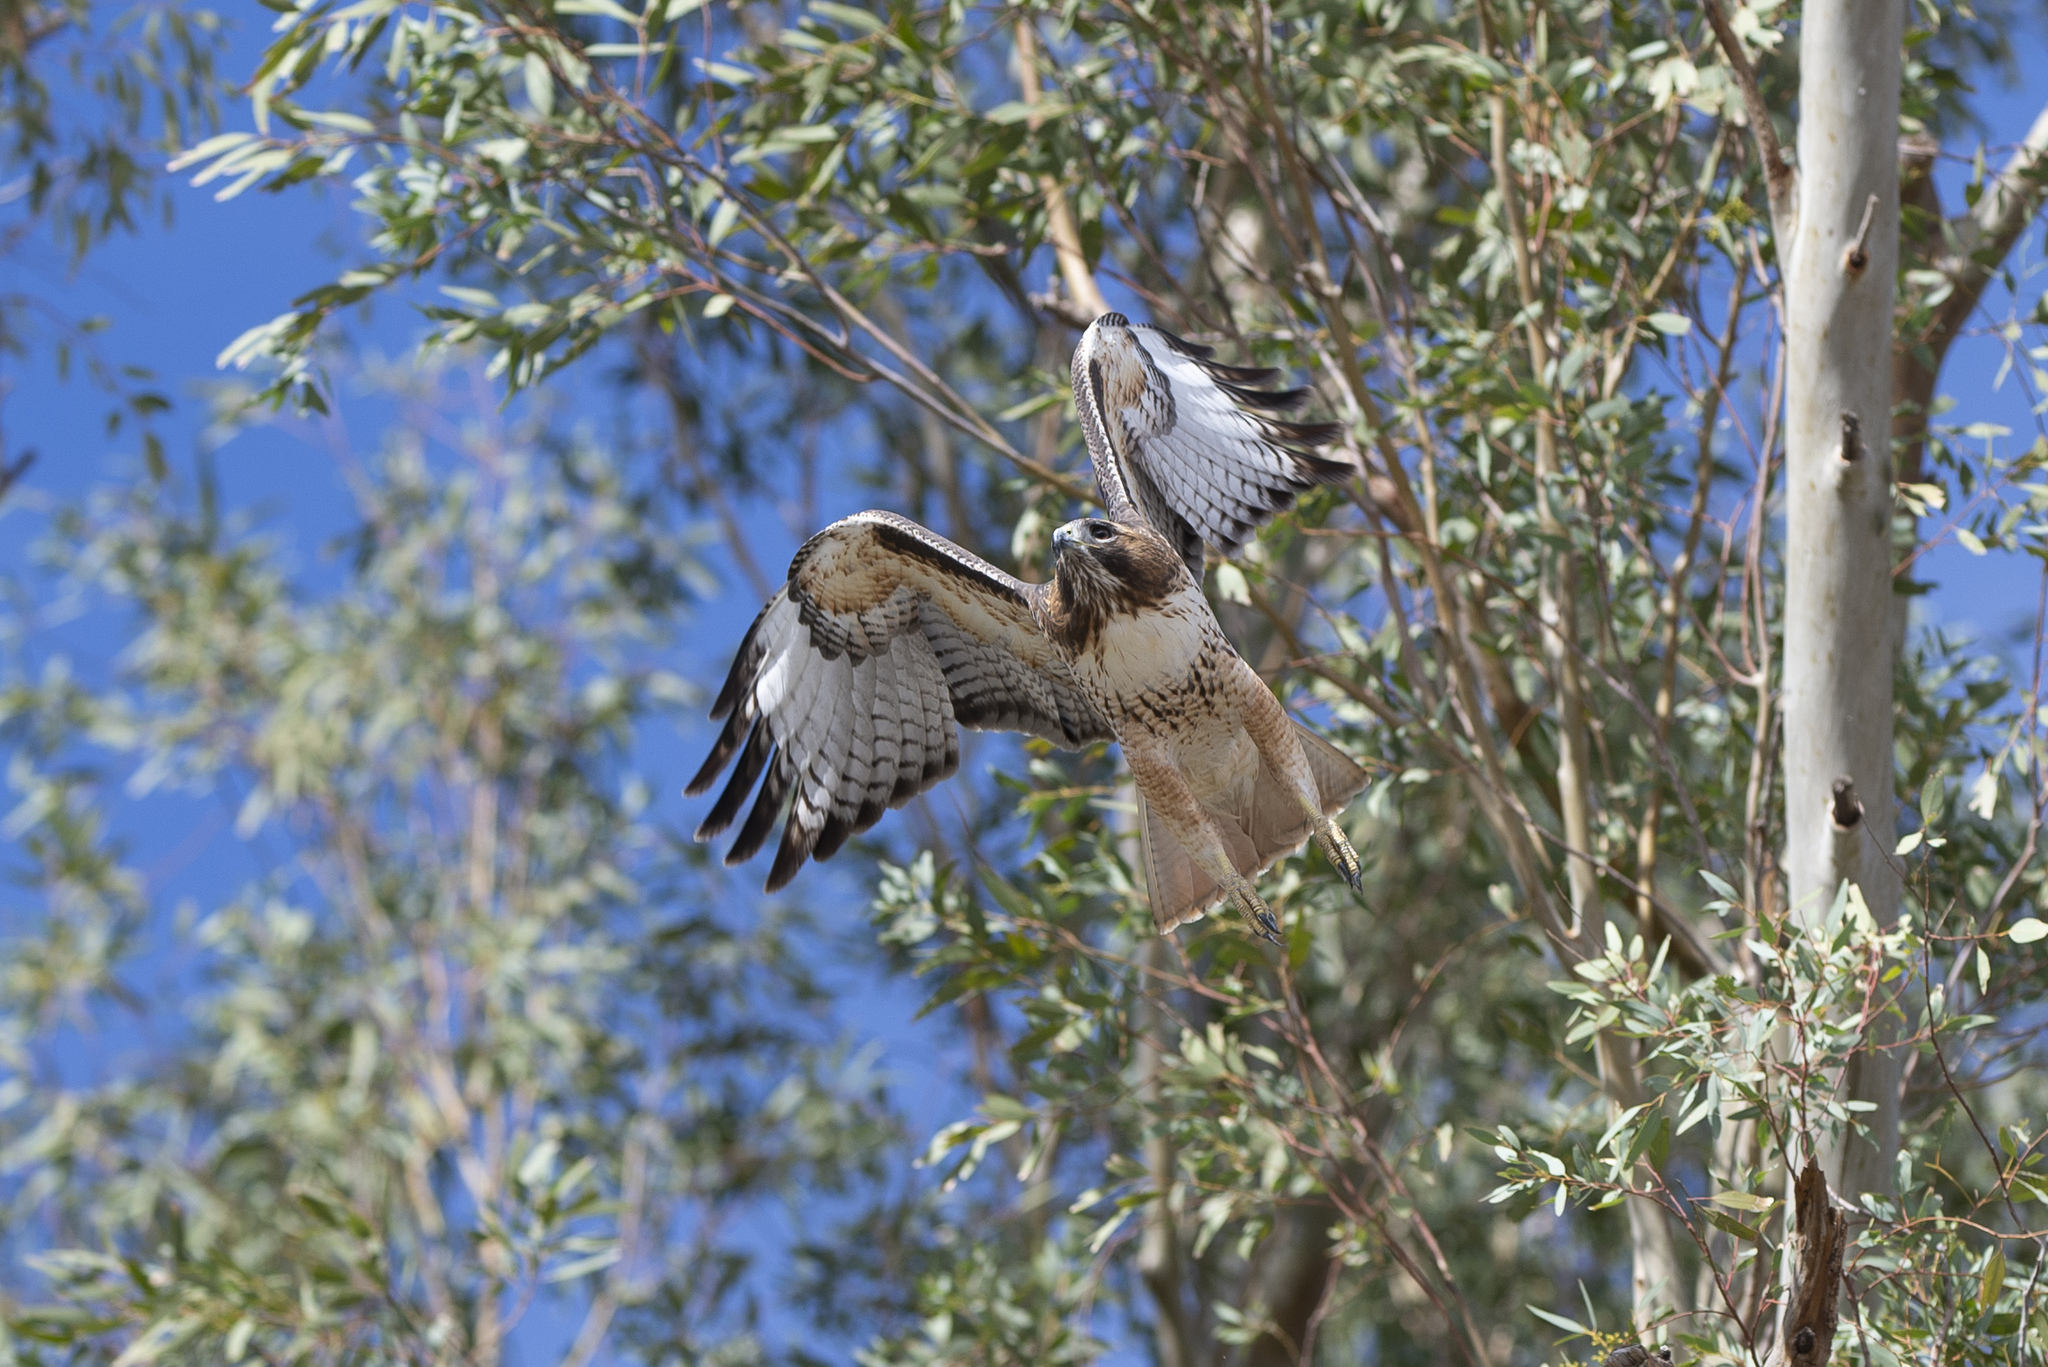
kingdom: Animalia
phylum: Chordata
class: Aves
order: Accipitriformes
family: Accipitridae
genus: Buteo
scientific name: Buteo jamaicensis
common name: Red-tailed hawk
